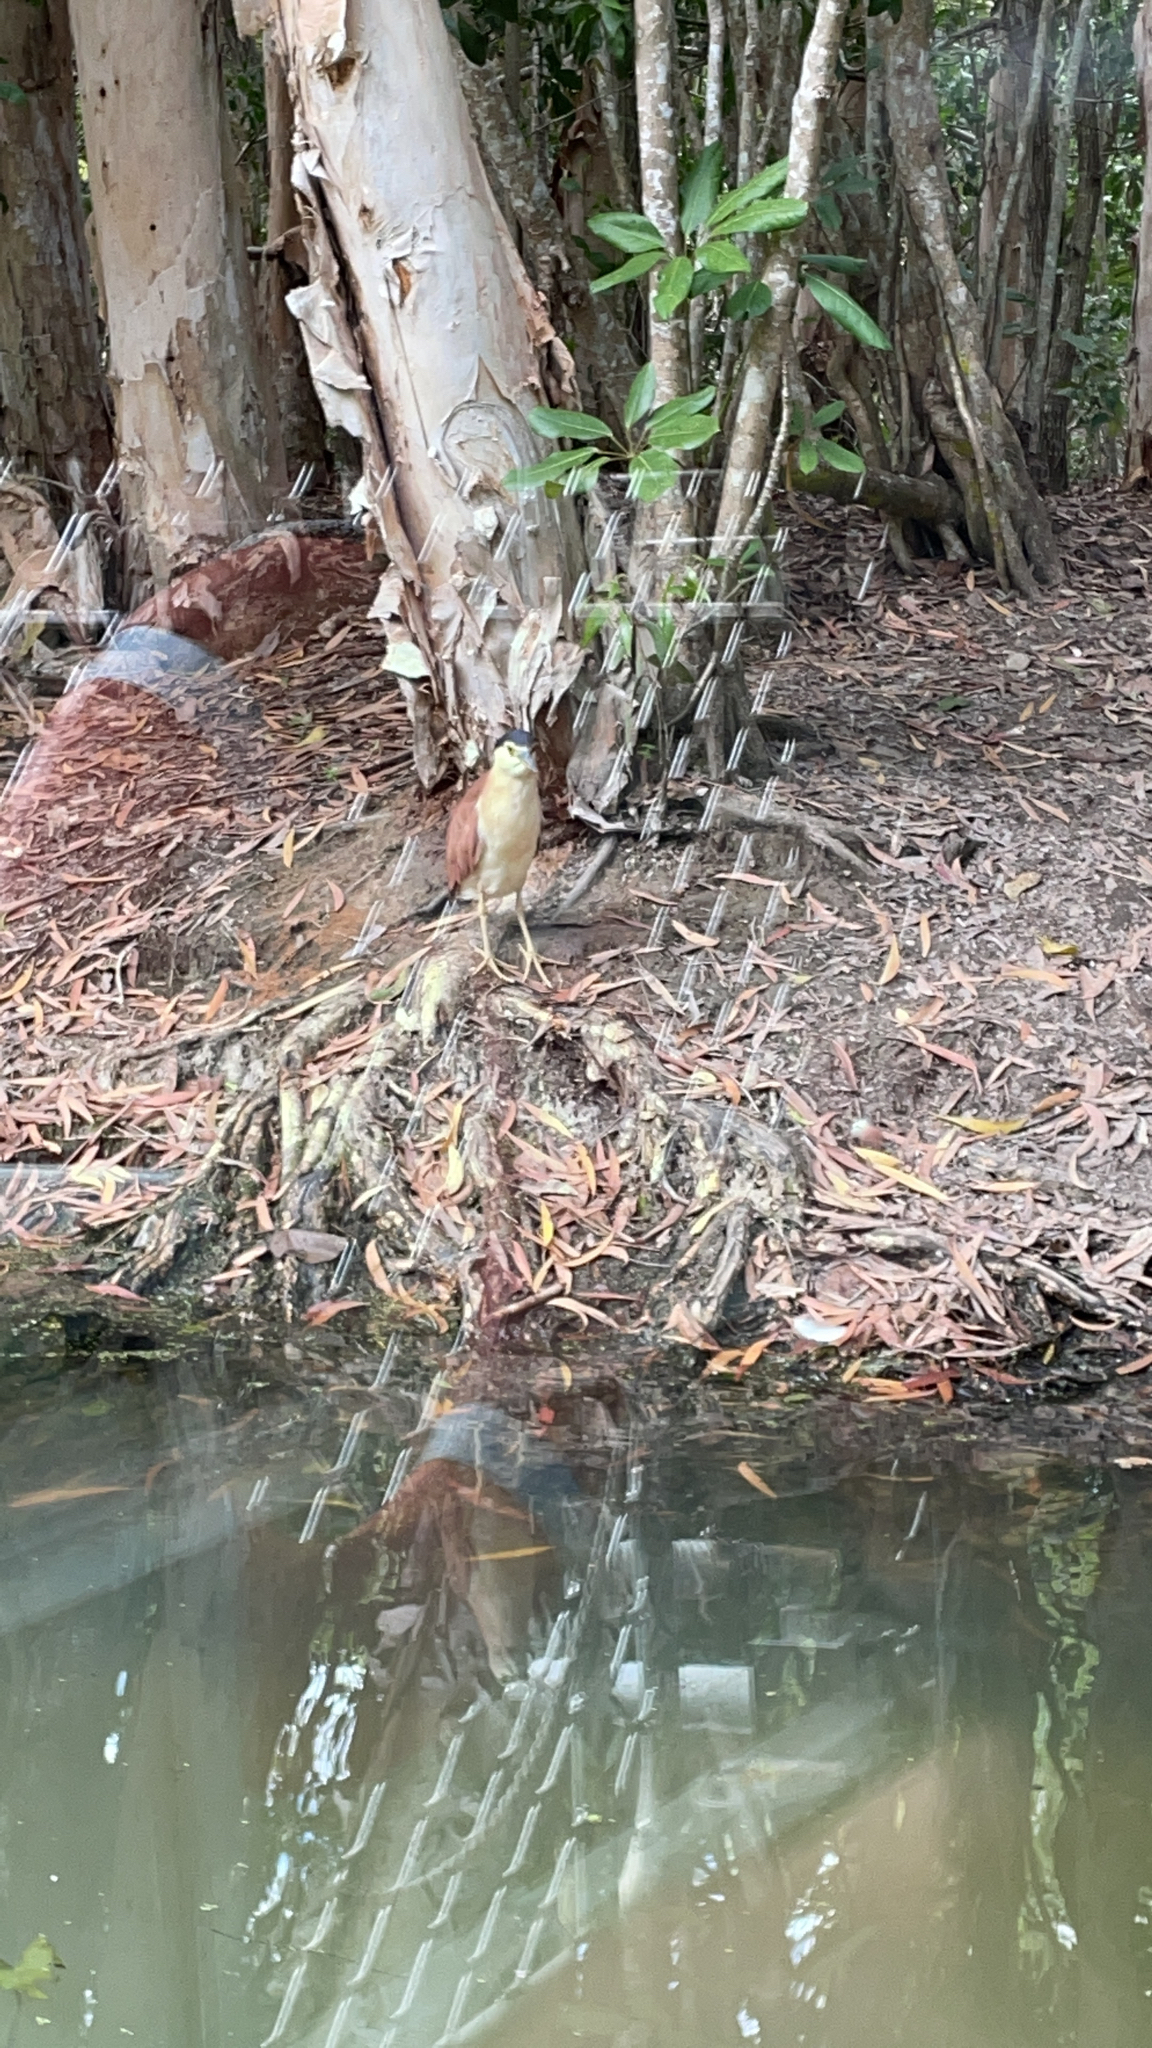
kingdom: Animalia
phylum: Chordata
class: Aves
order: Pelecaniformes
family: Ardeidae
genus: Nycticorax
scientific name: Nycticorax caledonicus
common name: Rufous night-heron
